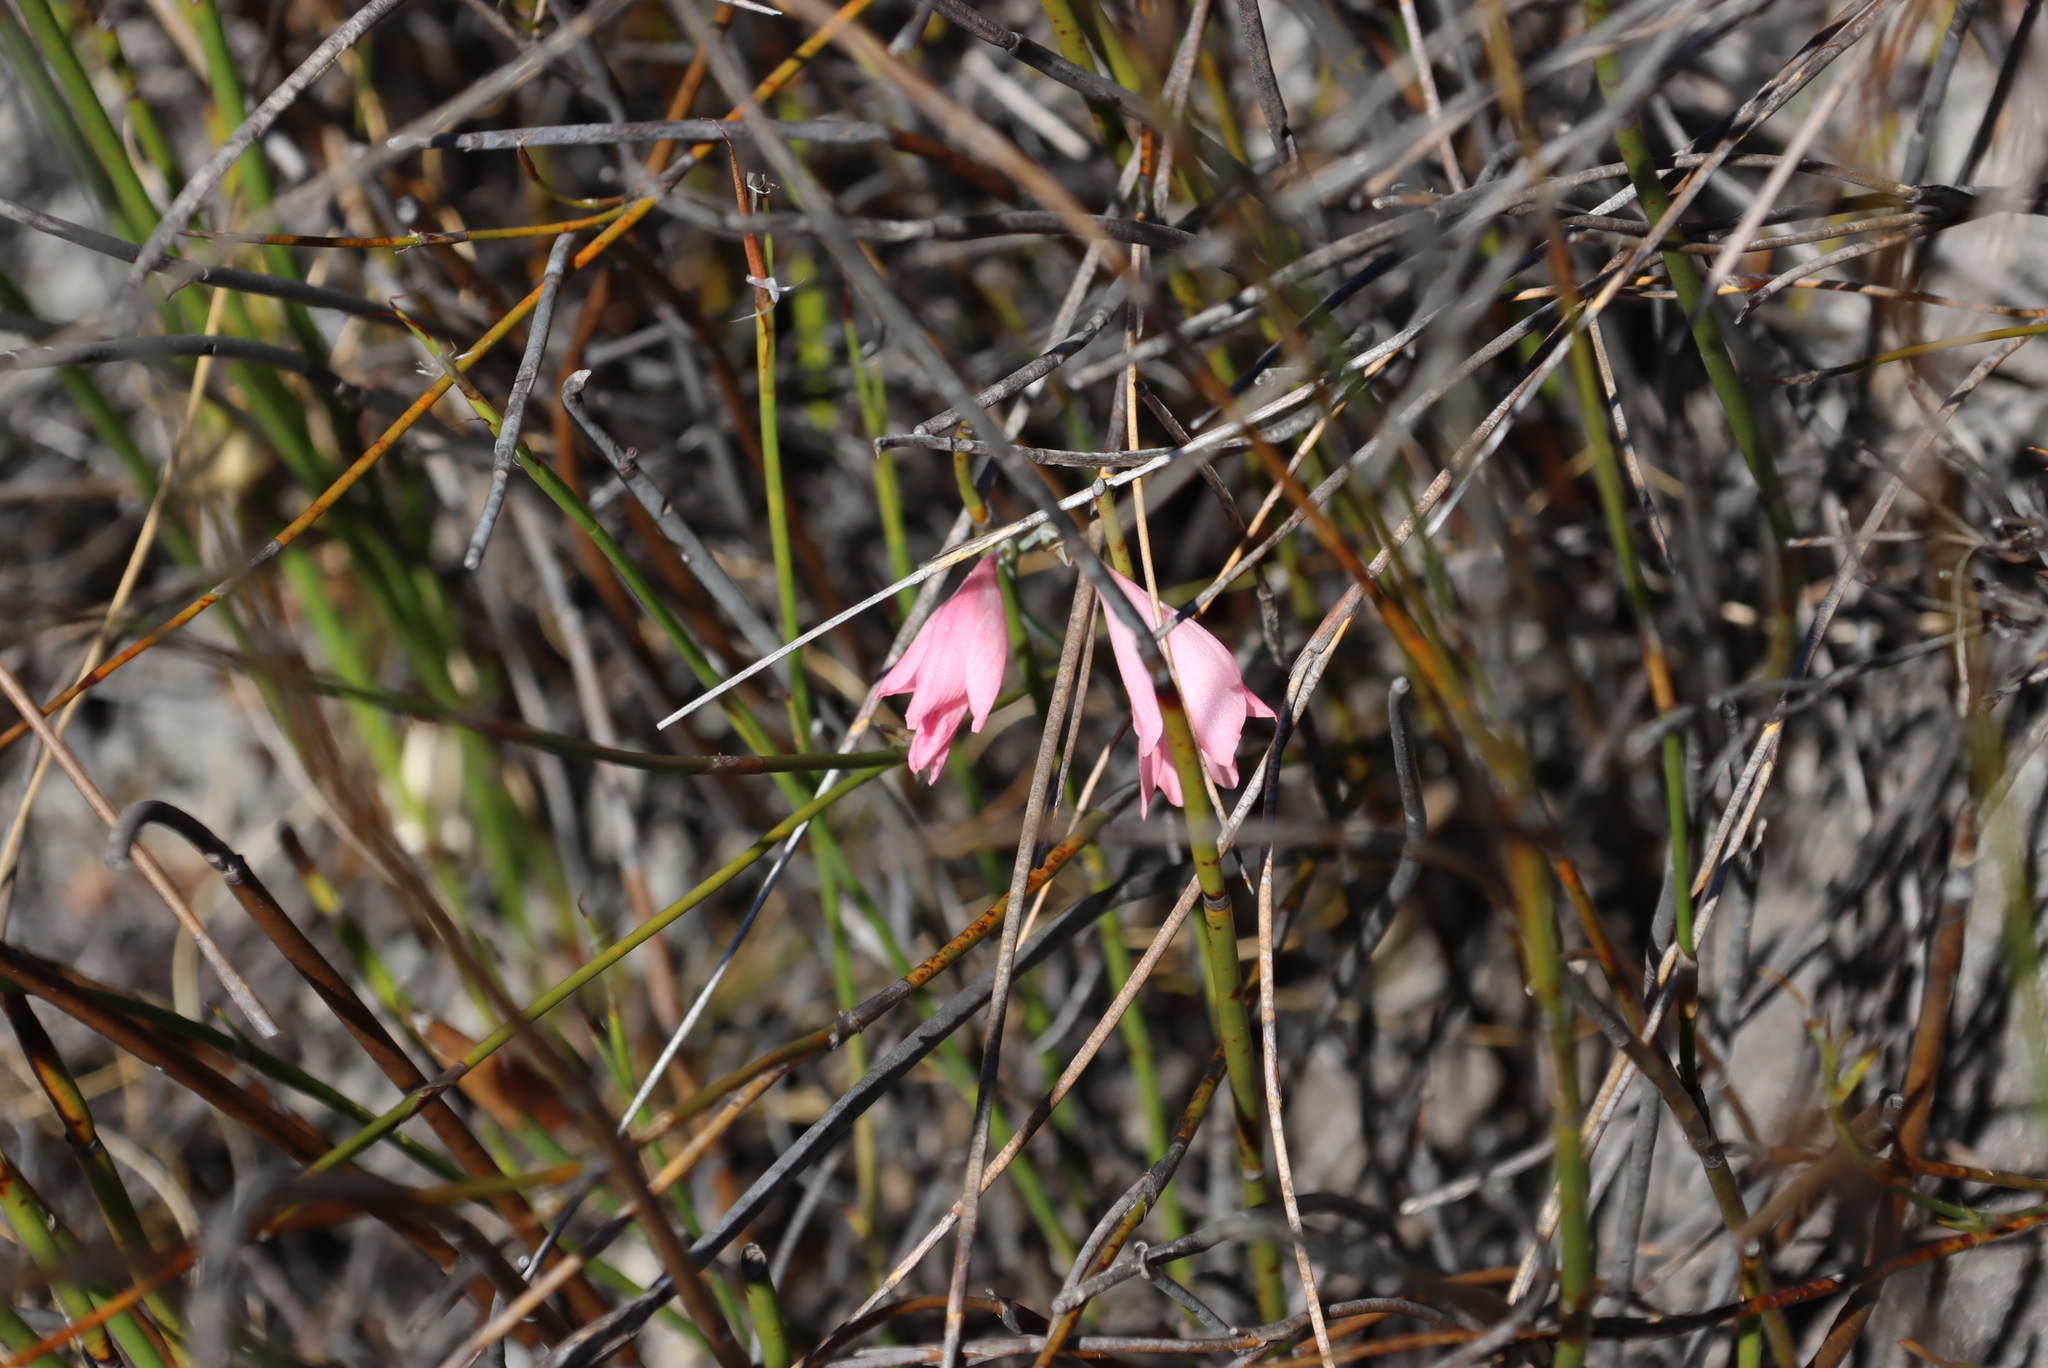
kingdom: Plantae
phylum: Tracheophyta
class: Liliopsida
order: Asparagales
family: Iridaceae
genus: Gladiolus
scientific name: Gladiolus brevifolius
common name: March pypie
